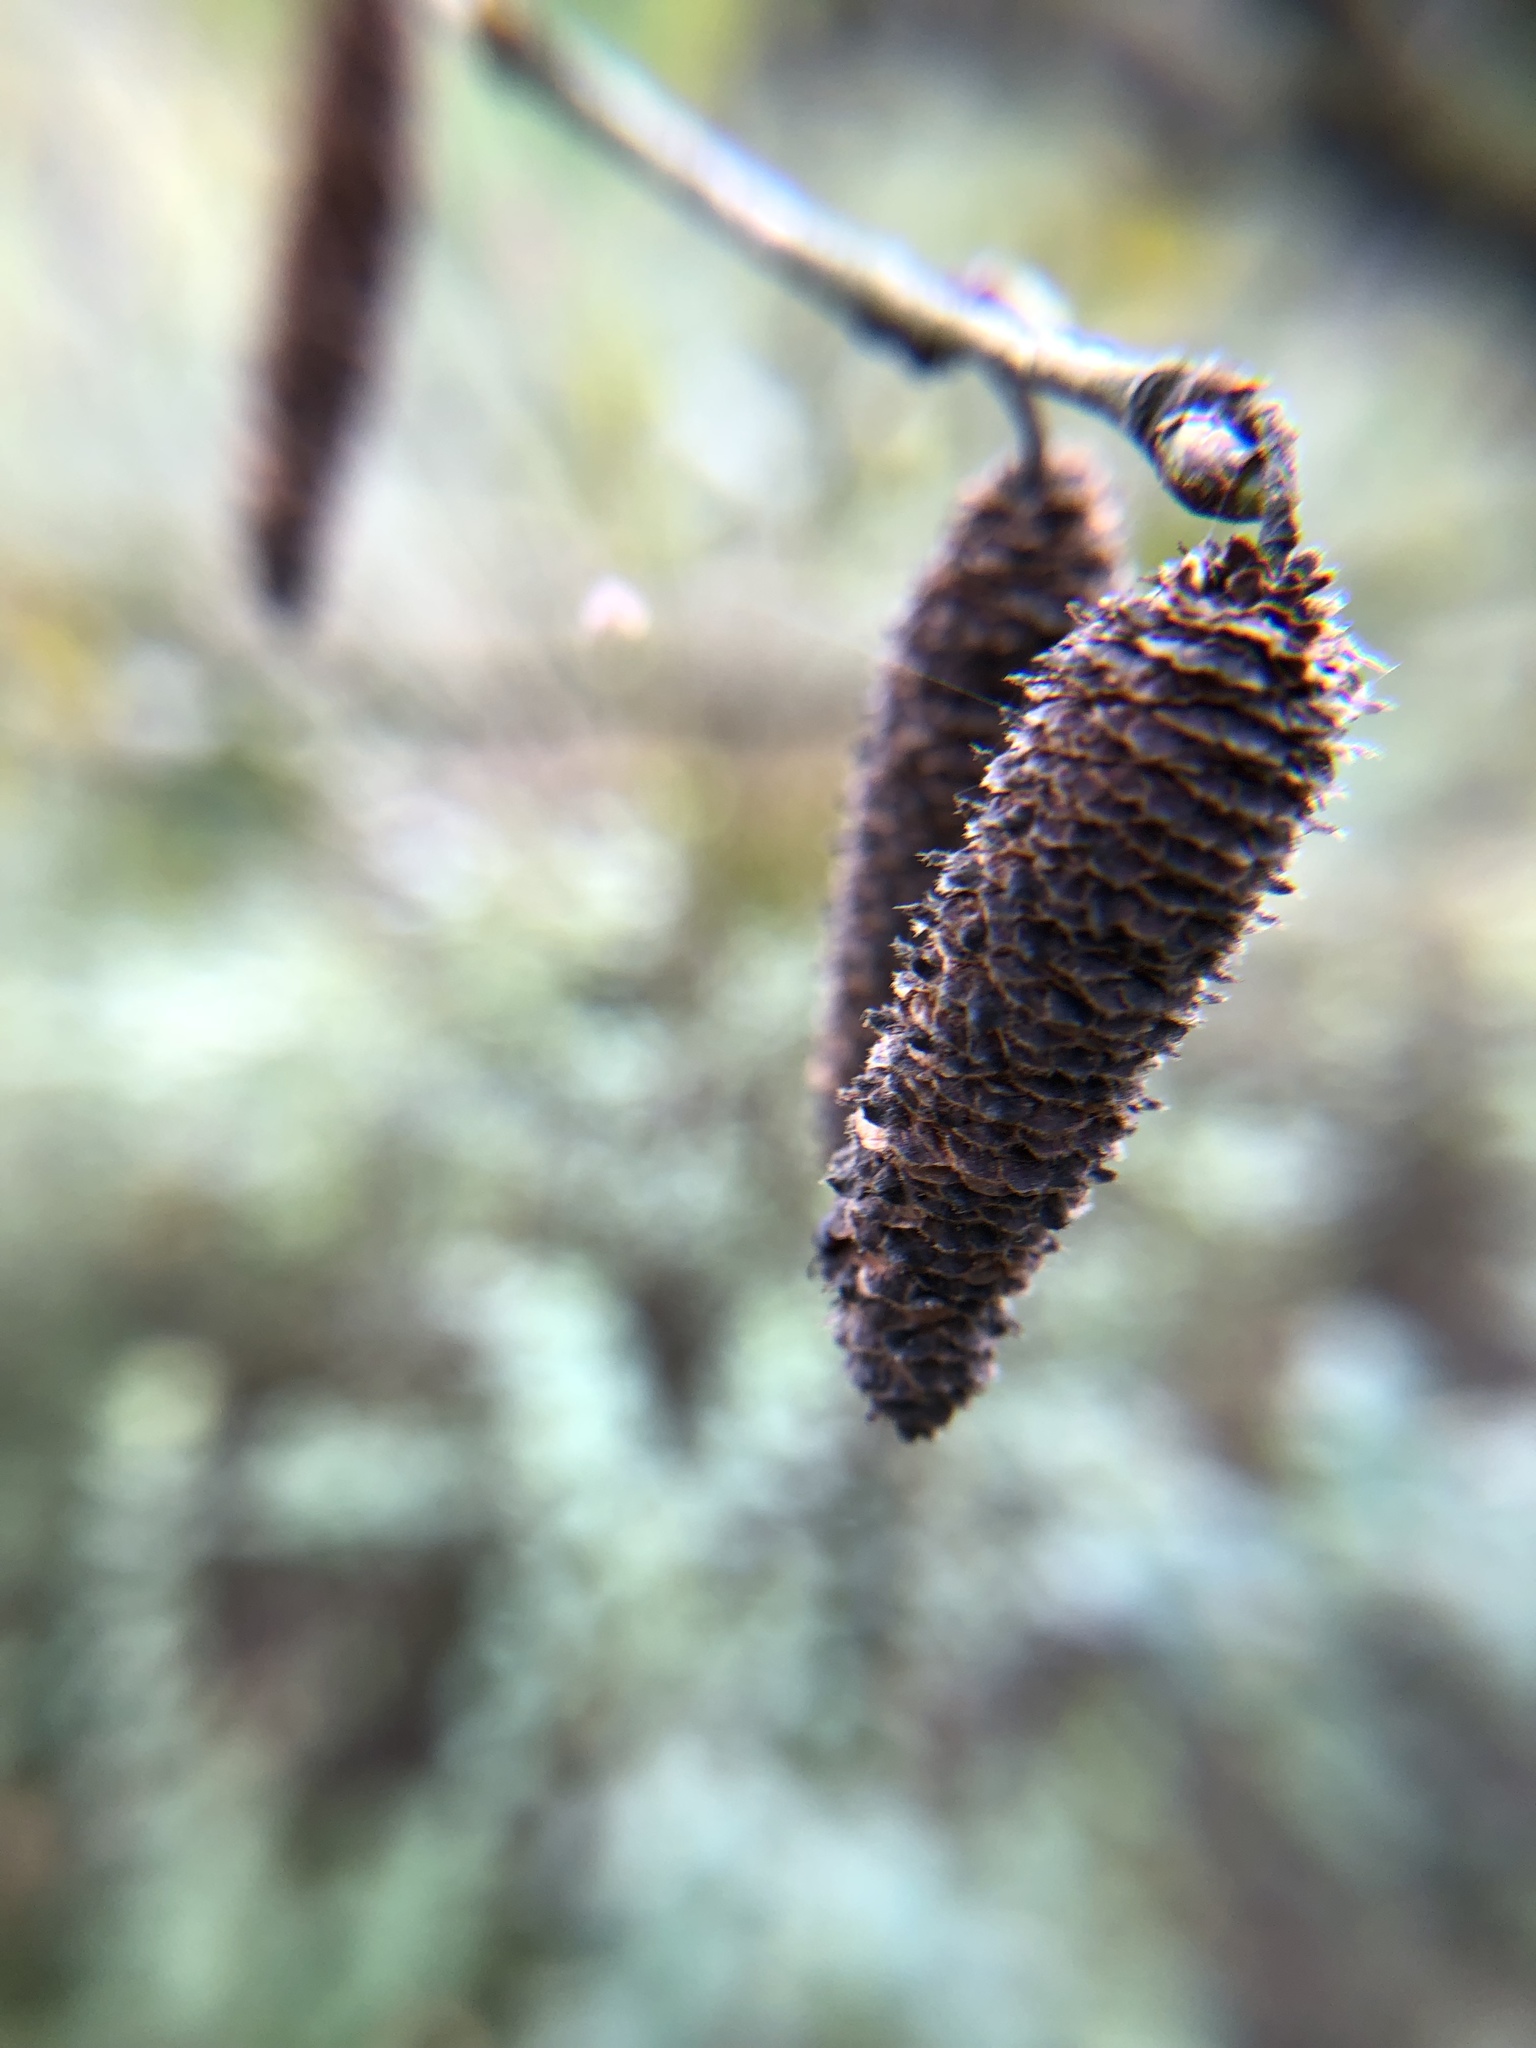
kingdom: Plantae
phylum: Tracheophyta
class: Magnoliopsida
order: Fagales
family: Betulaceae
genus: Alnus
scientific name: Alnus glutinosa
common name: Black alder
